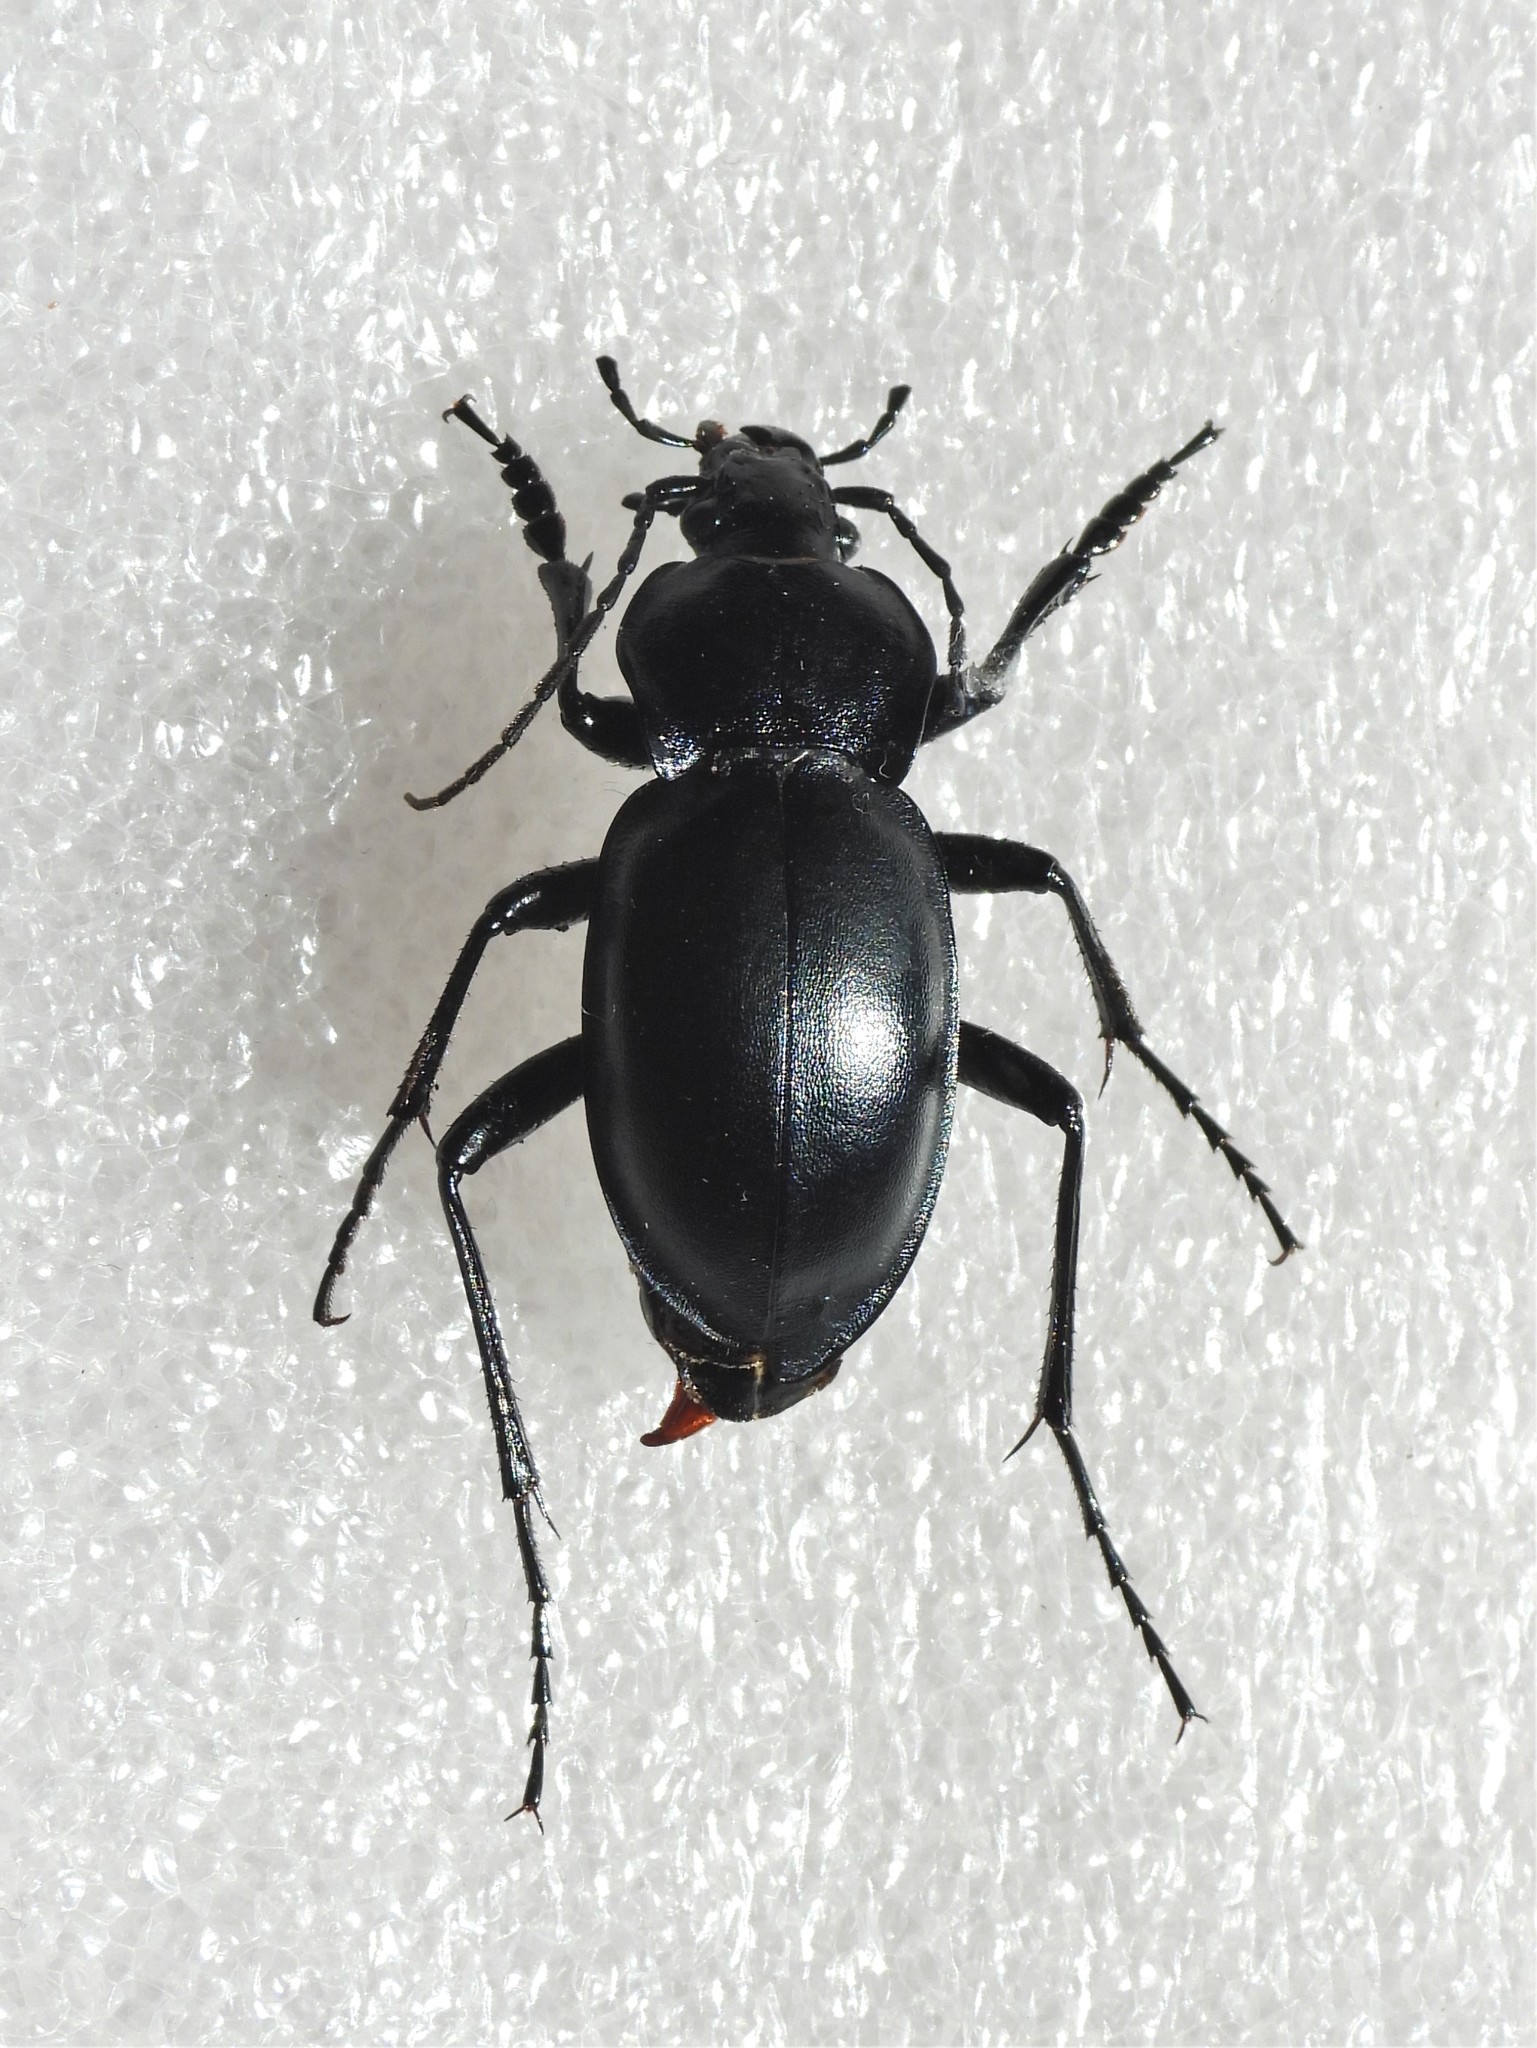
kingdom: Animalia
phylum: Arthropoda
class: Insecta
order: Coleoptera
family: Carabidae
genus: Carabus
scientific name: Carabus glabratus
